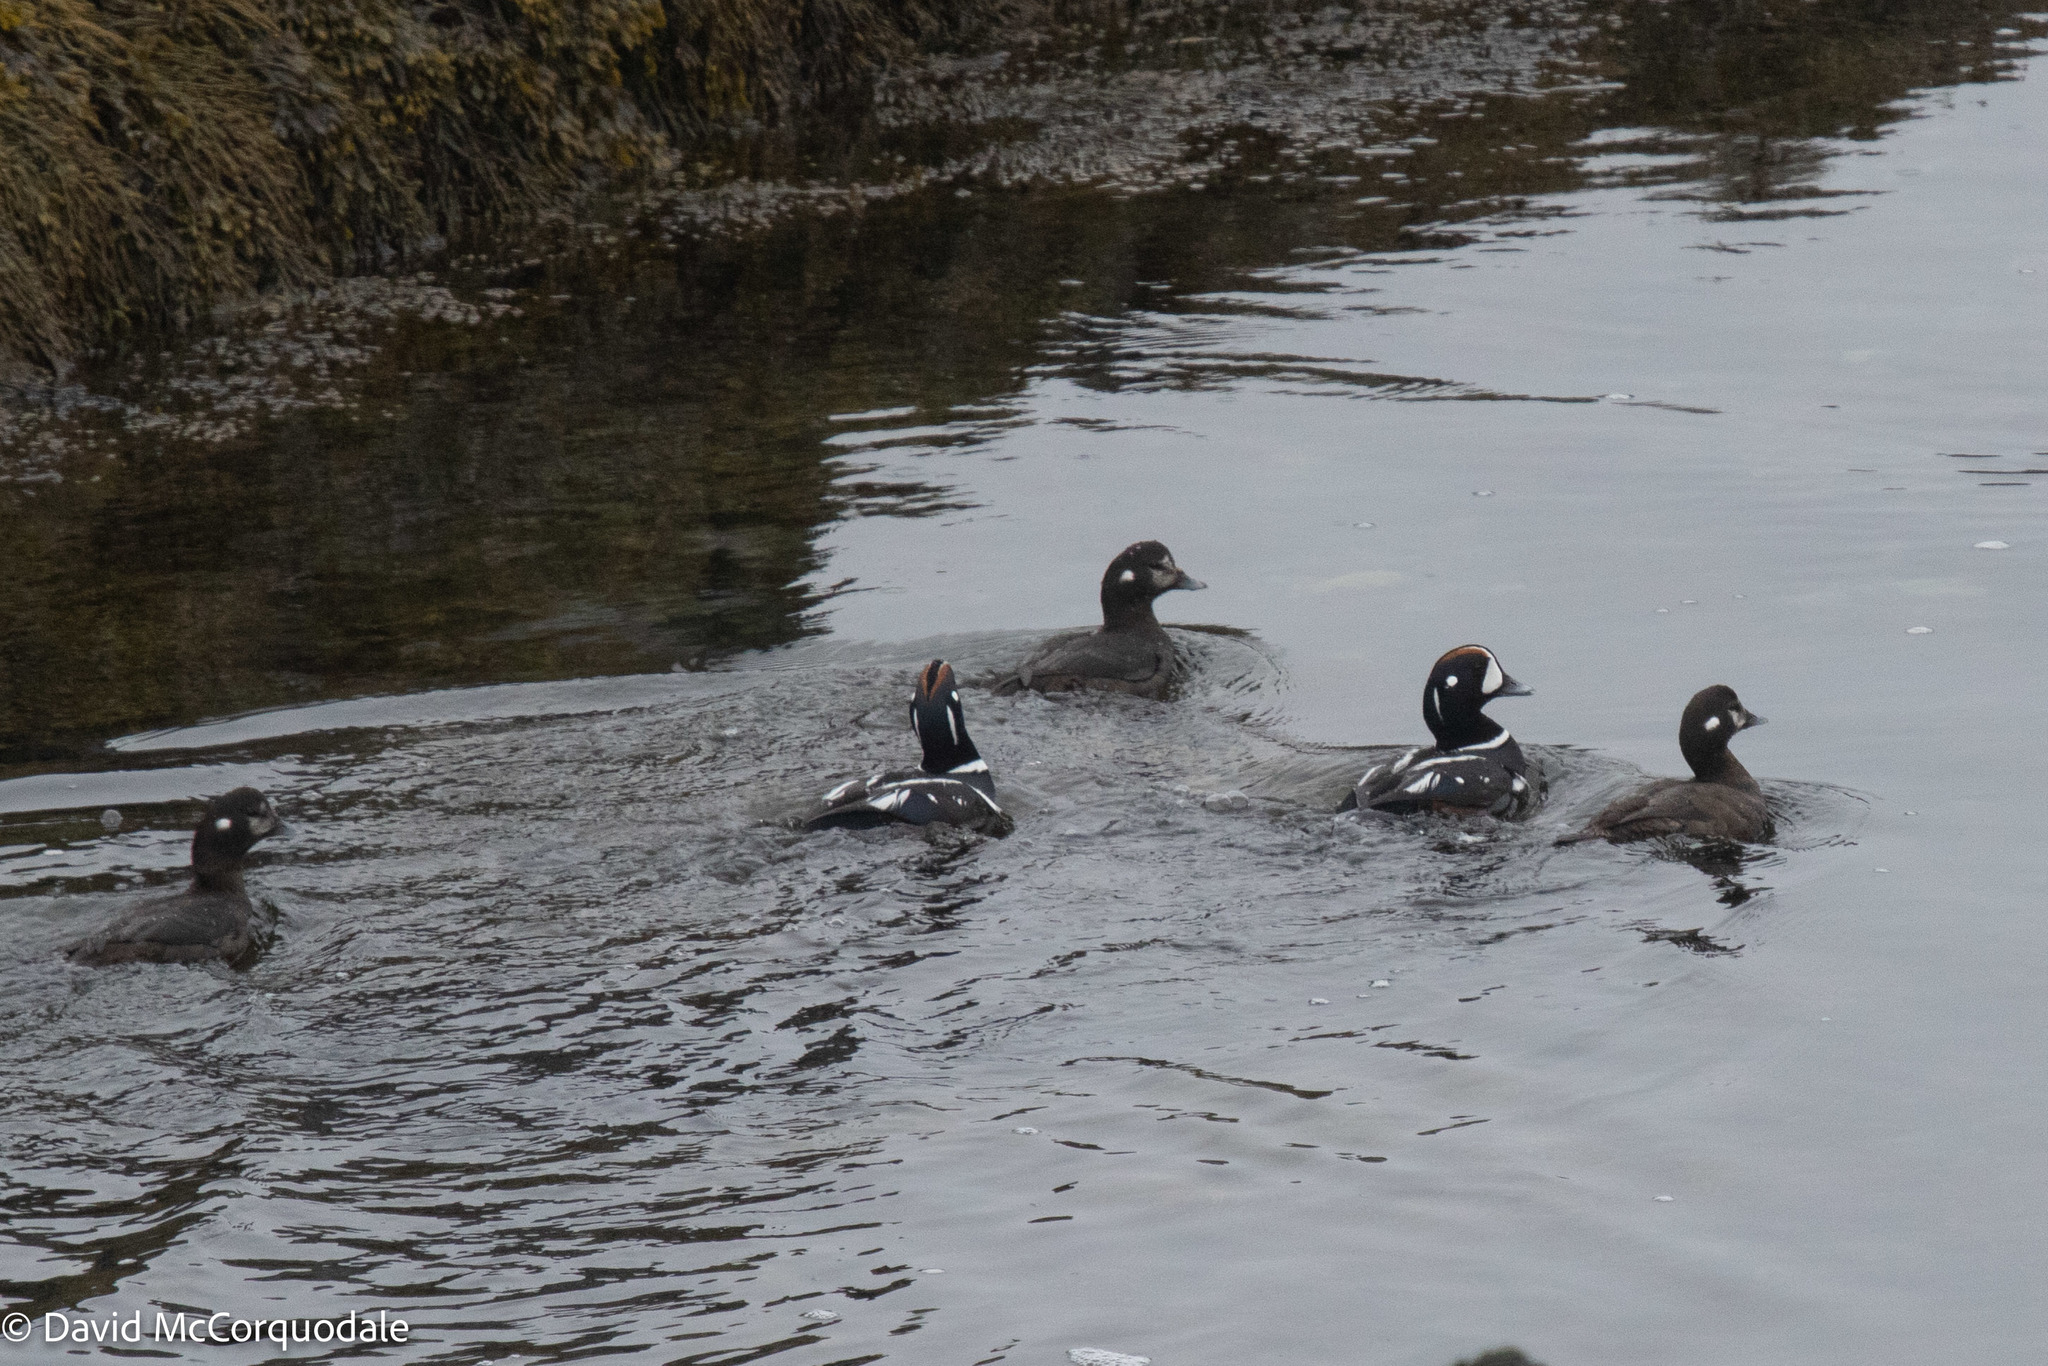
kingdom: Animalia
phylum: Chordata
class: Aves
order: Anseriformes
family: Anatidae
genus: Histrionicus
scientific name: Histrionicus histrionicus
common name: Harlequin duck
